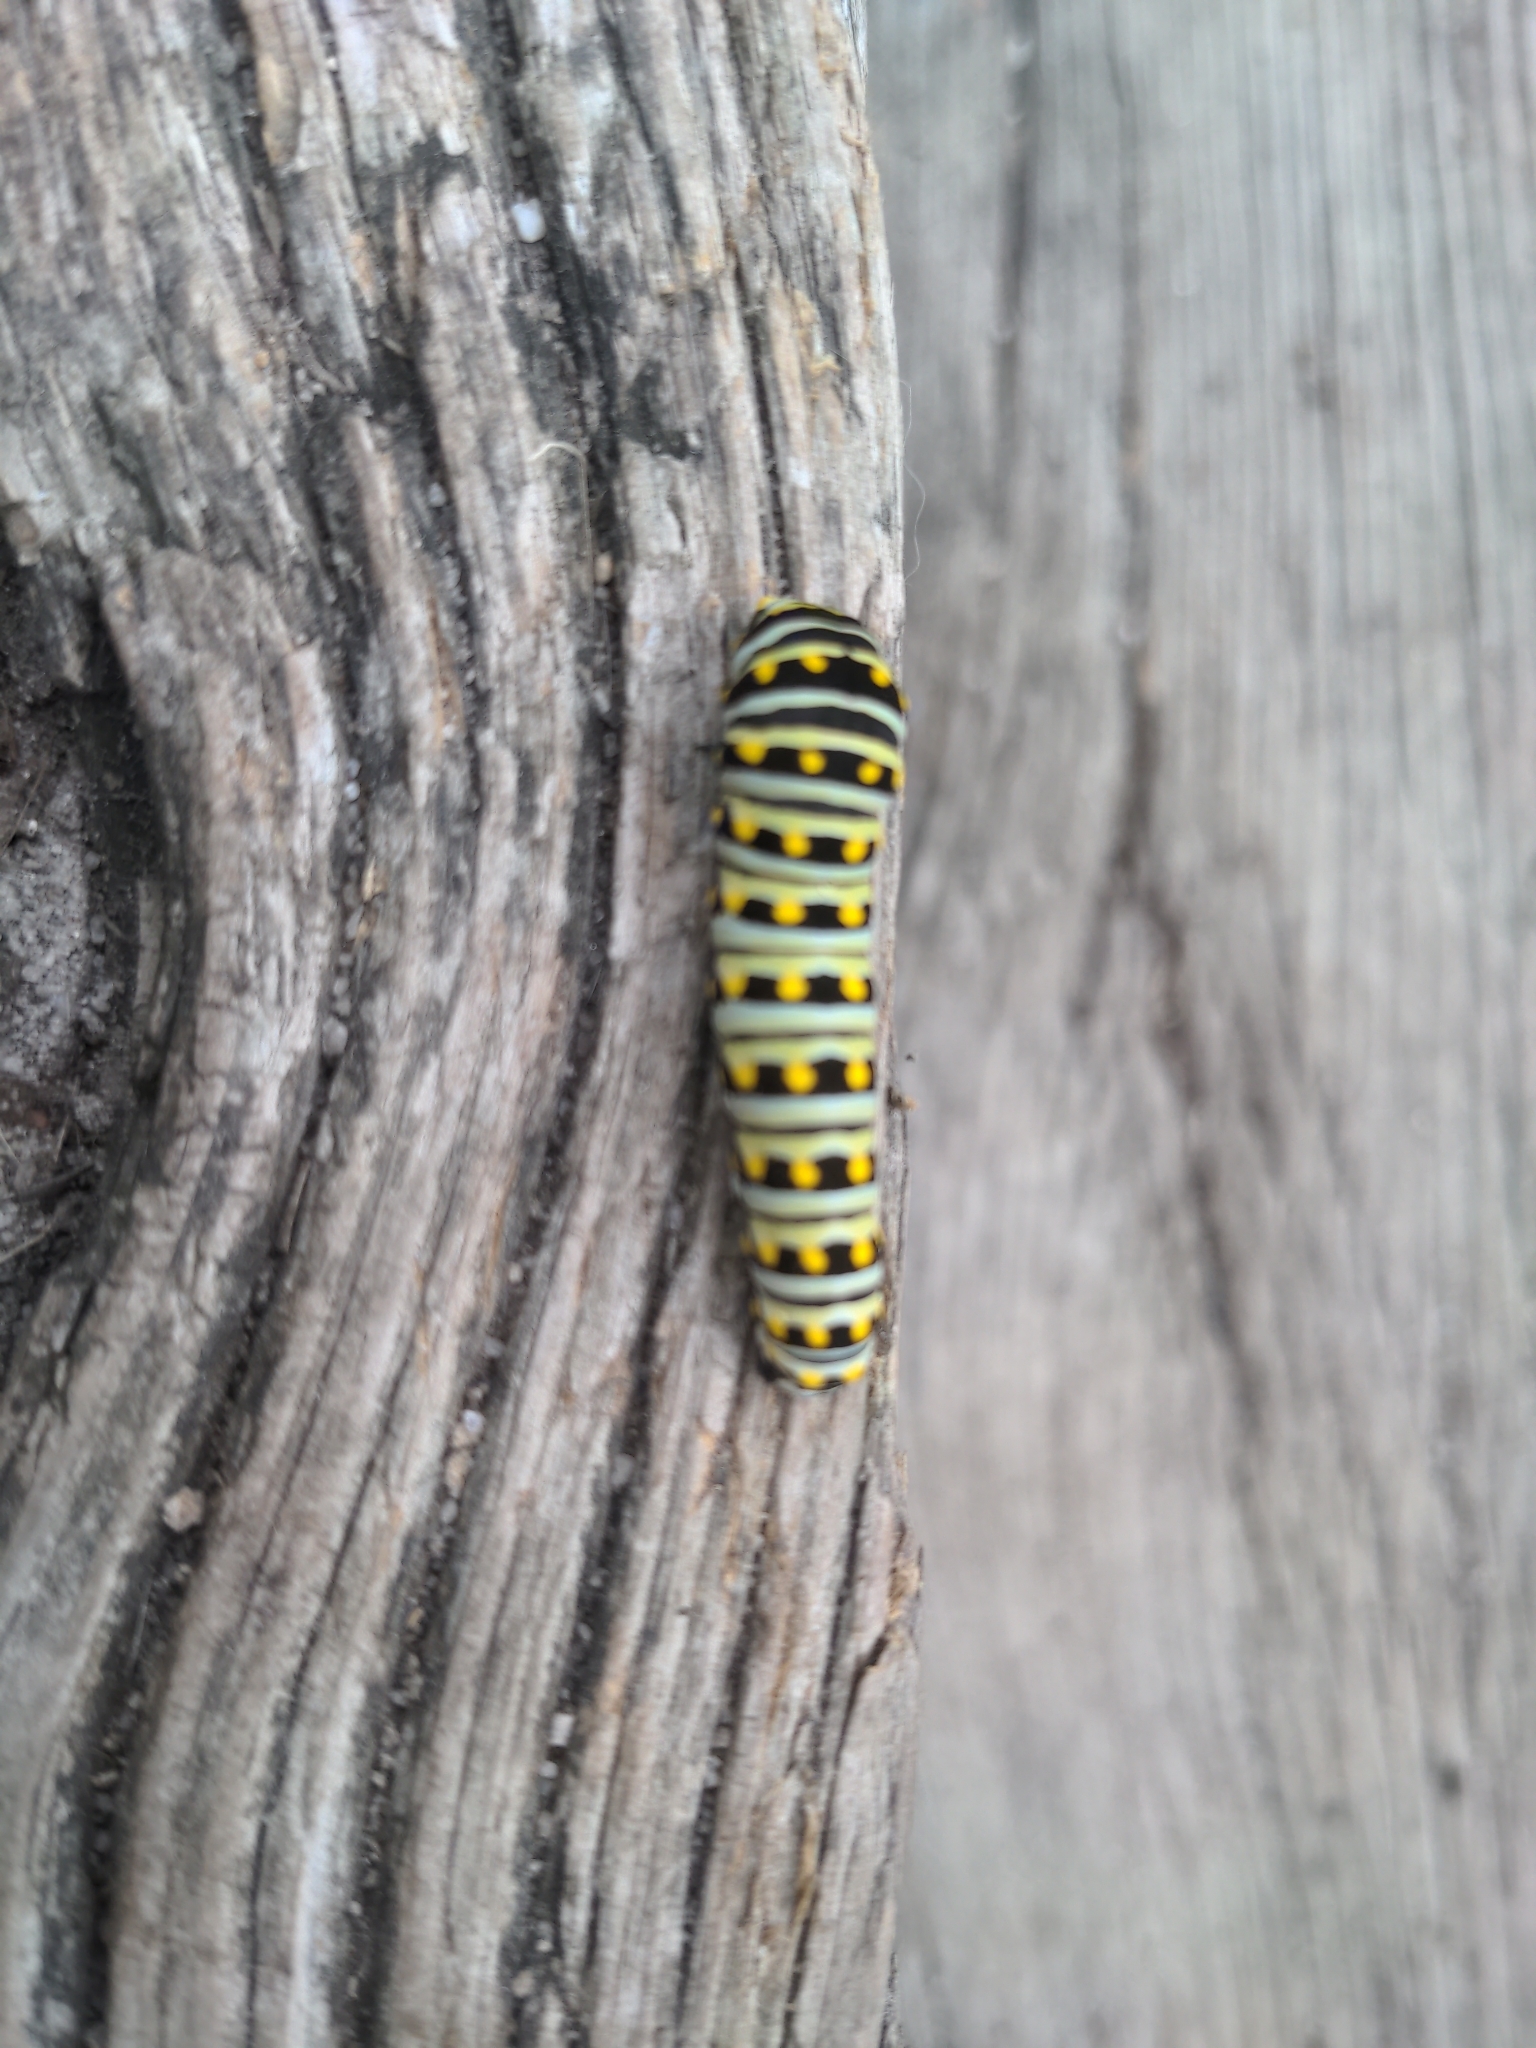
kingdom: Animalia
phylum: Arthropoda
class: Insecta
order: Lepidoptera
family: Papilionidae
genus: Papilio
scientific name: Papilio polyxenes
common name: Black swallowtail
